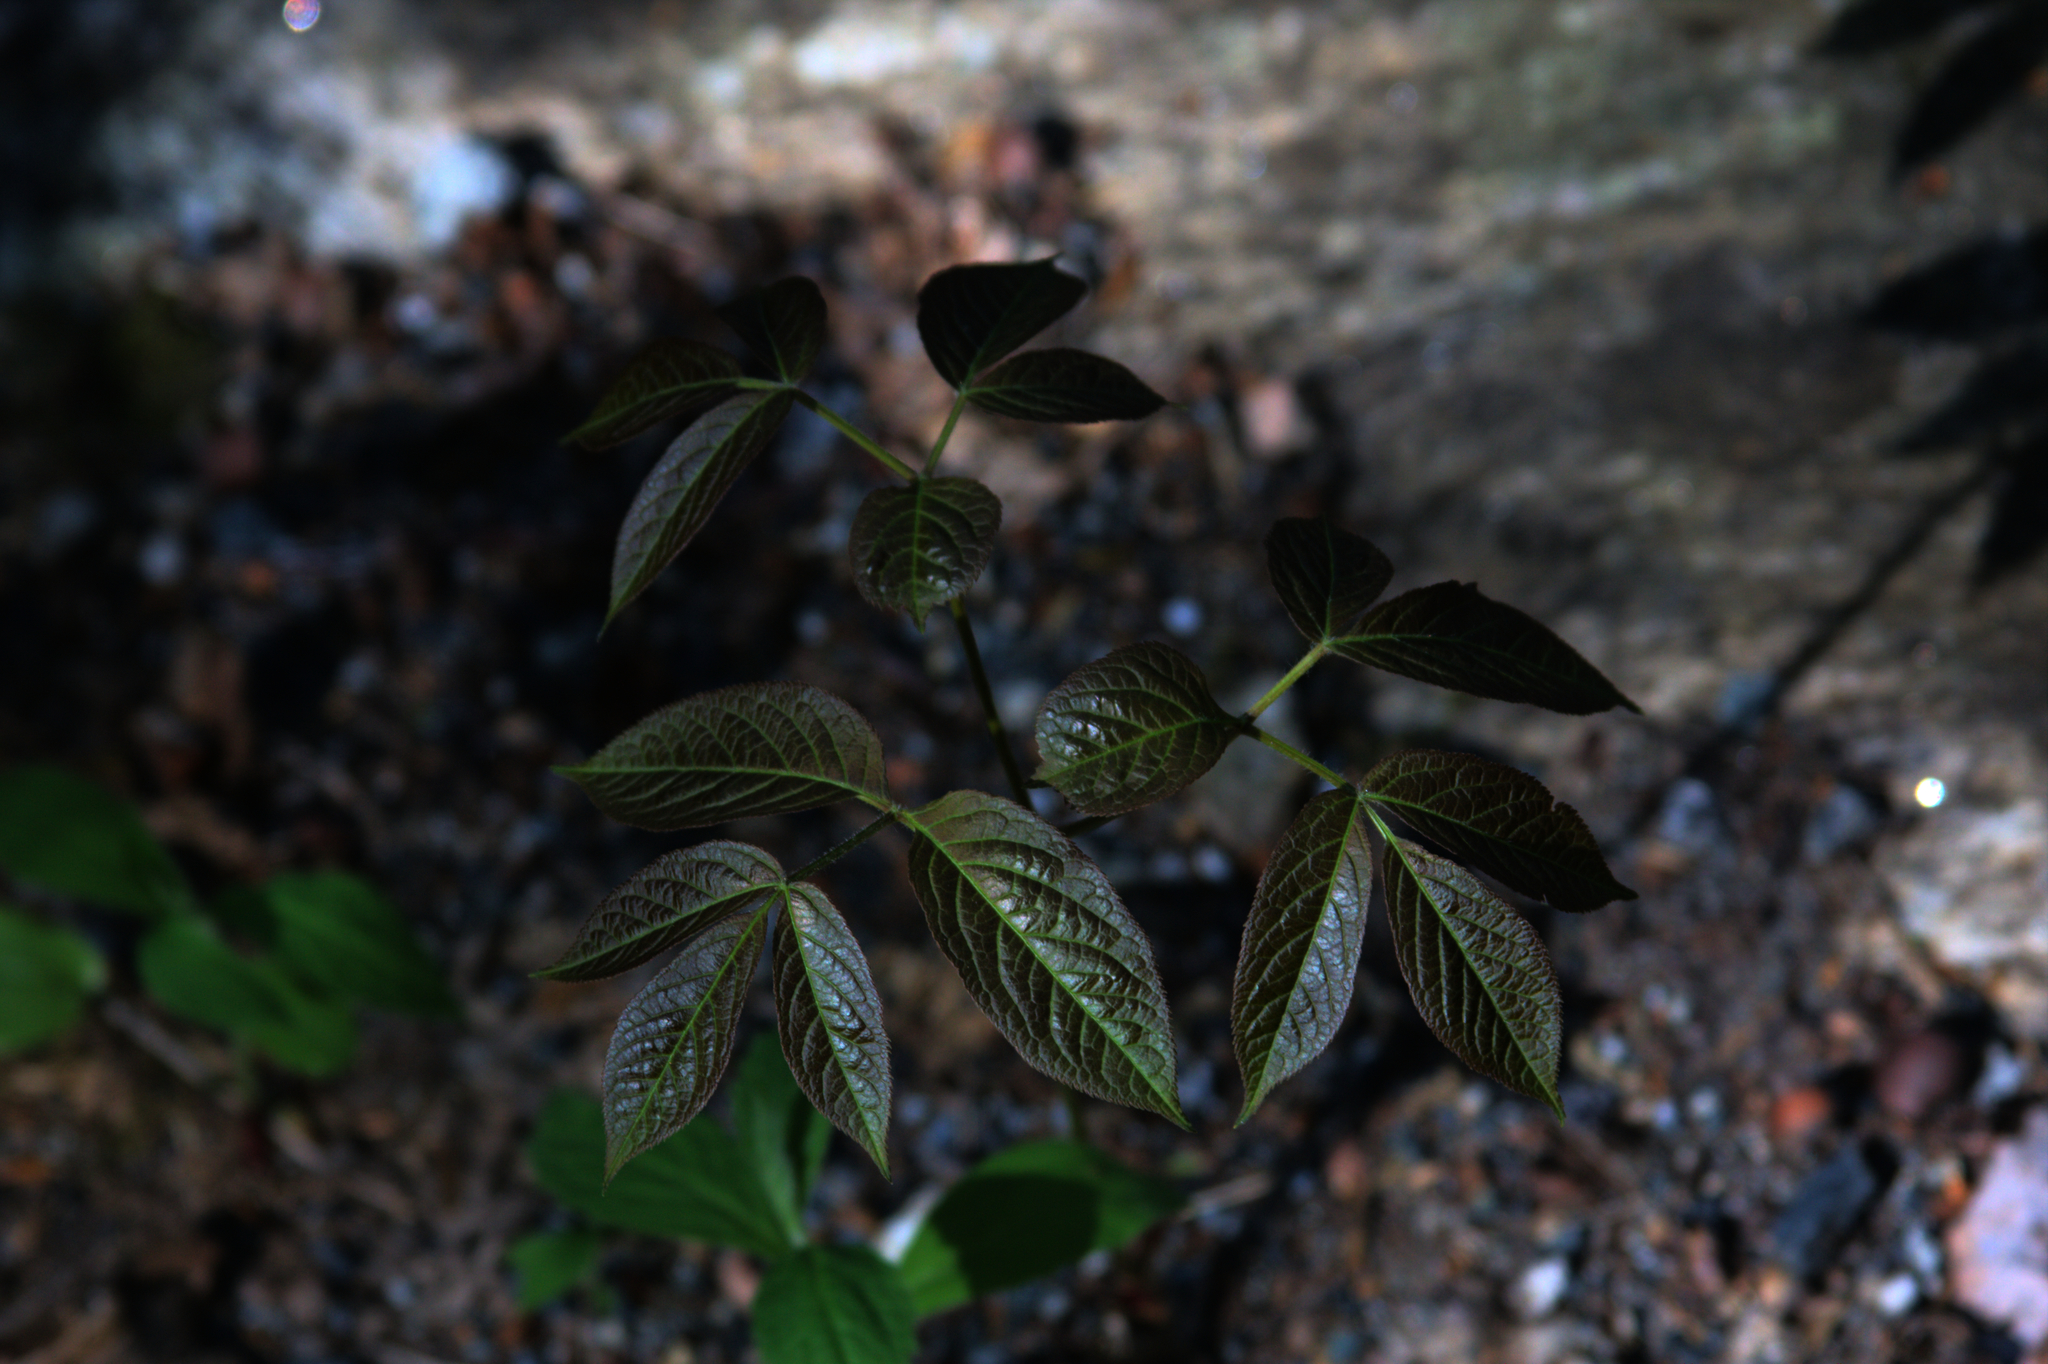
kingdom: Plantae
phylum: Tracheophyta
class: Magnoliopsida
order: Apiales
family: Araliaceae
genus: Aralia
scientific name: Aralia nudicaulis
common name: Wild sarsaparilla
